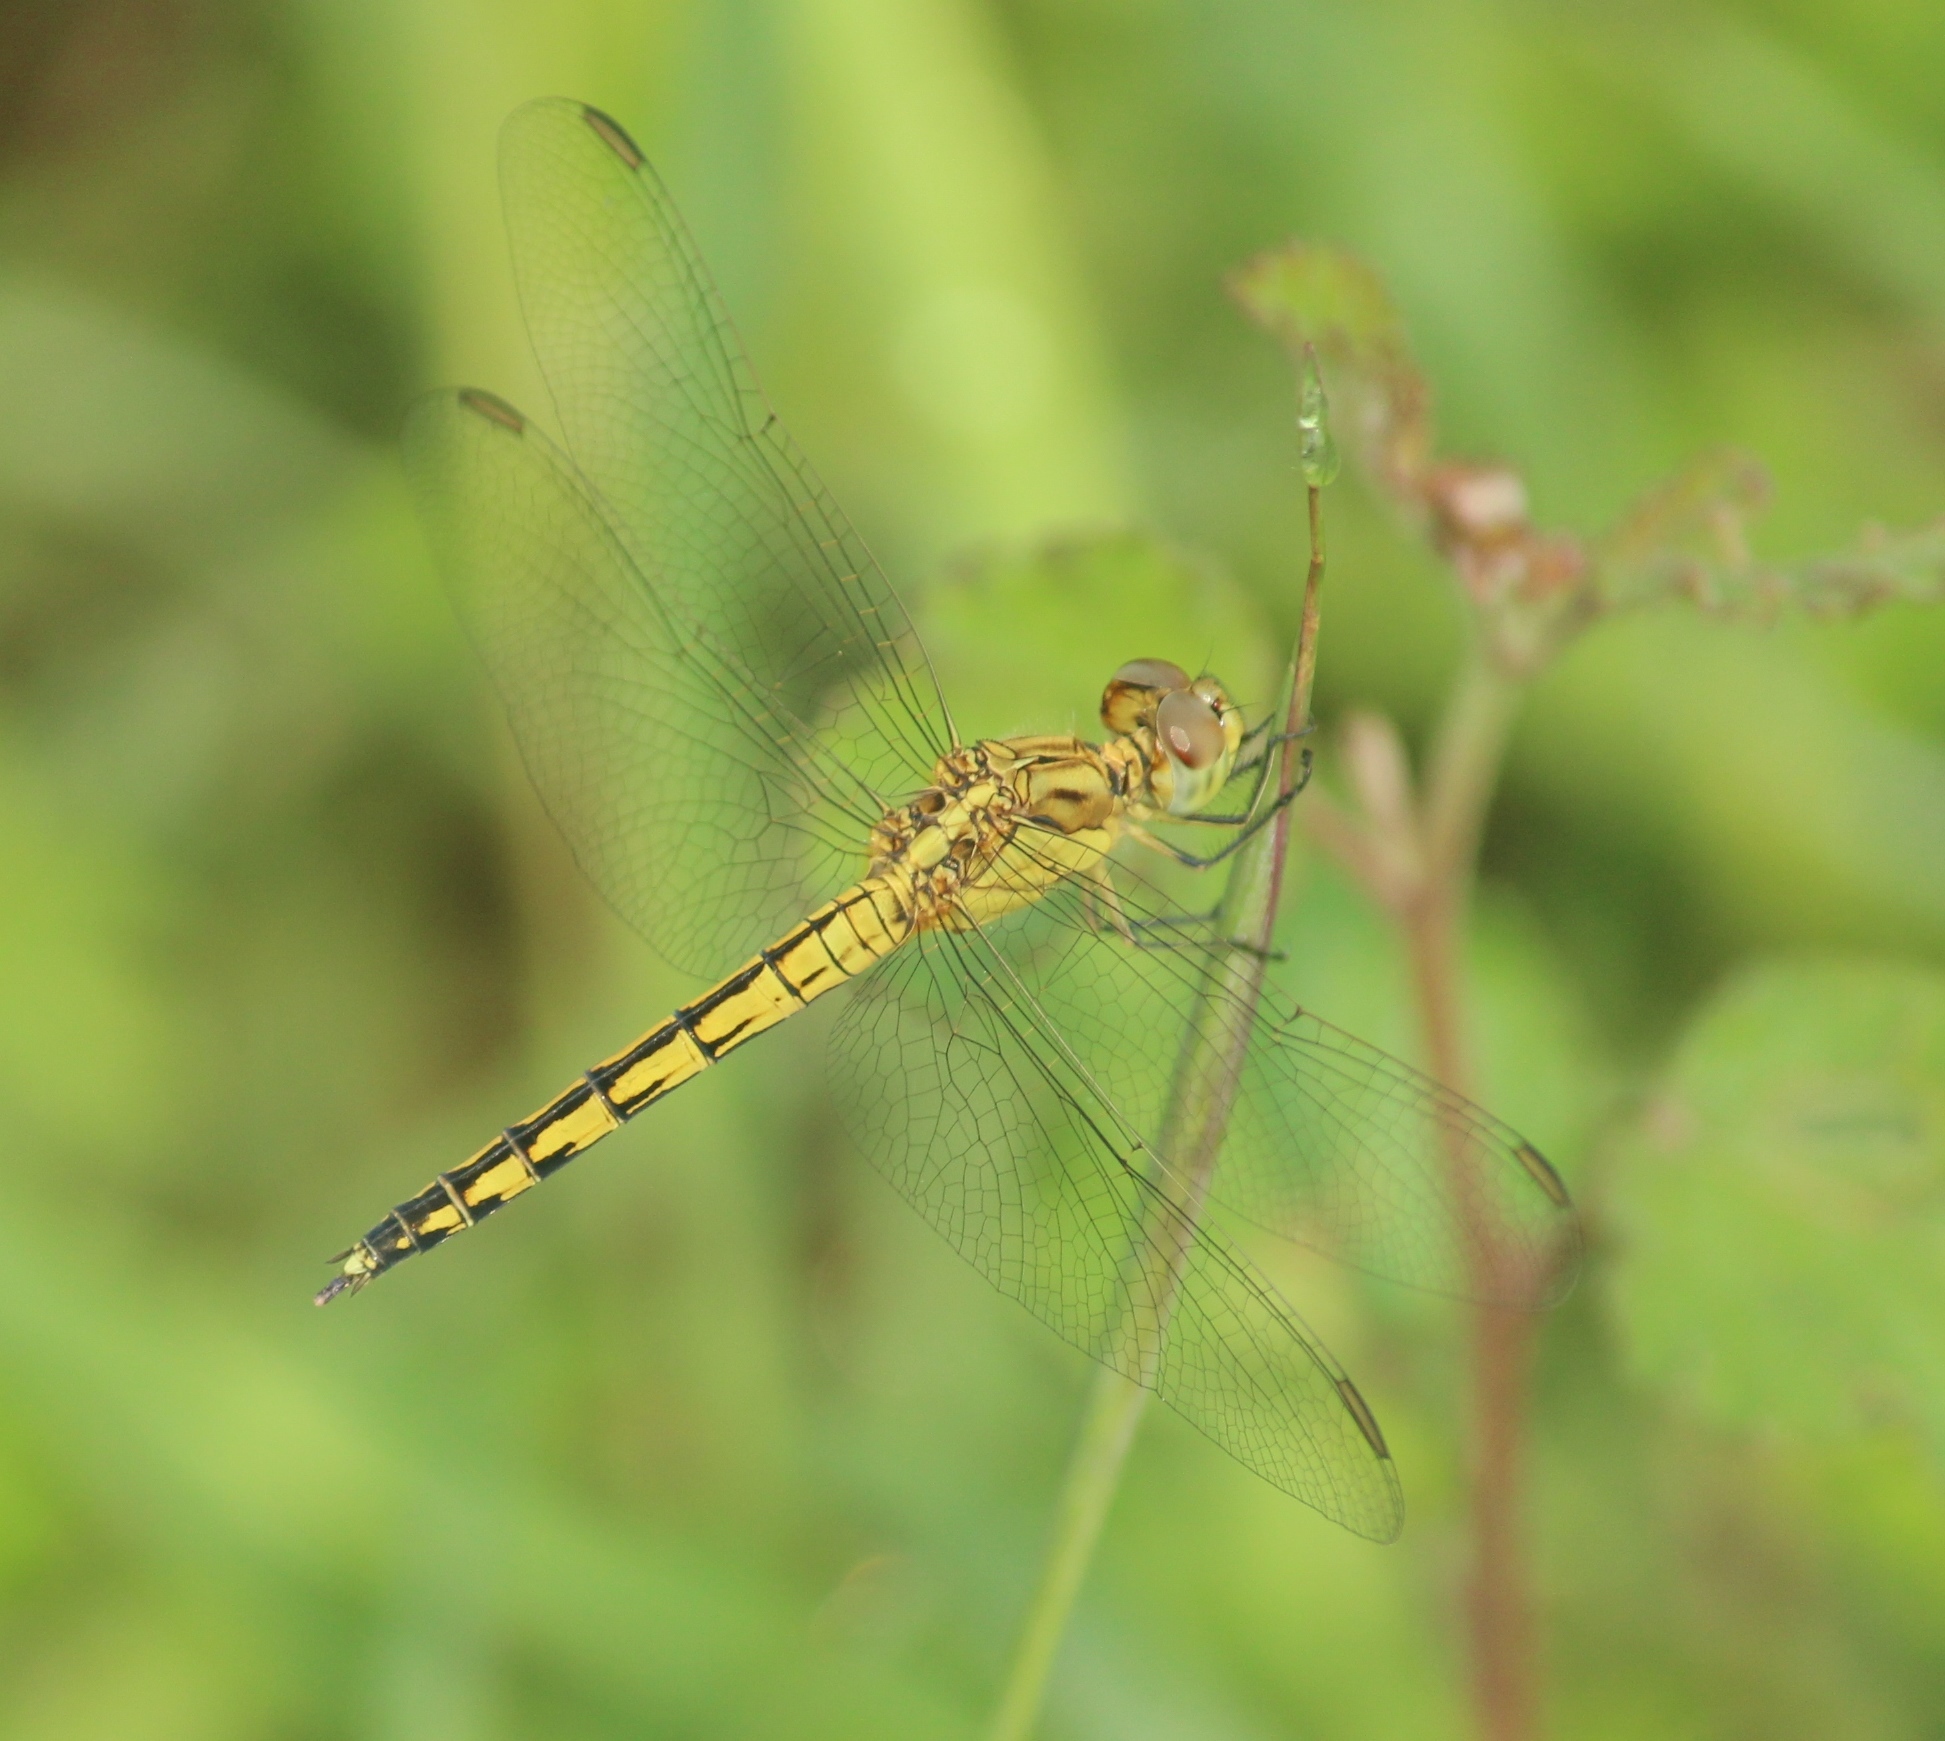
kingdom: Animalia
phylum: Arthropoda
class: Insecta
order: Odonata
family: Libellulidae
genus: Indothemis
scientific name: Indothemis carnatica
